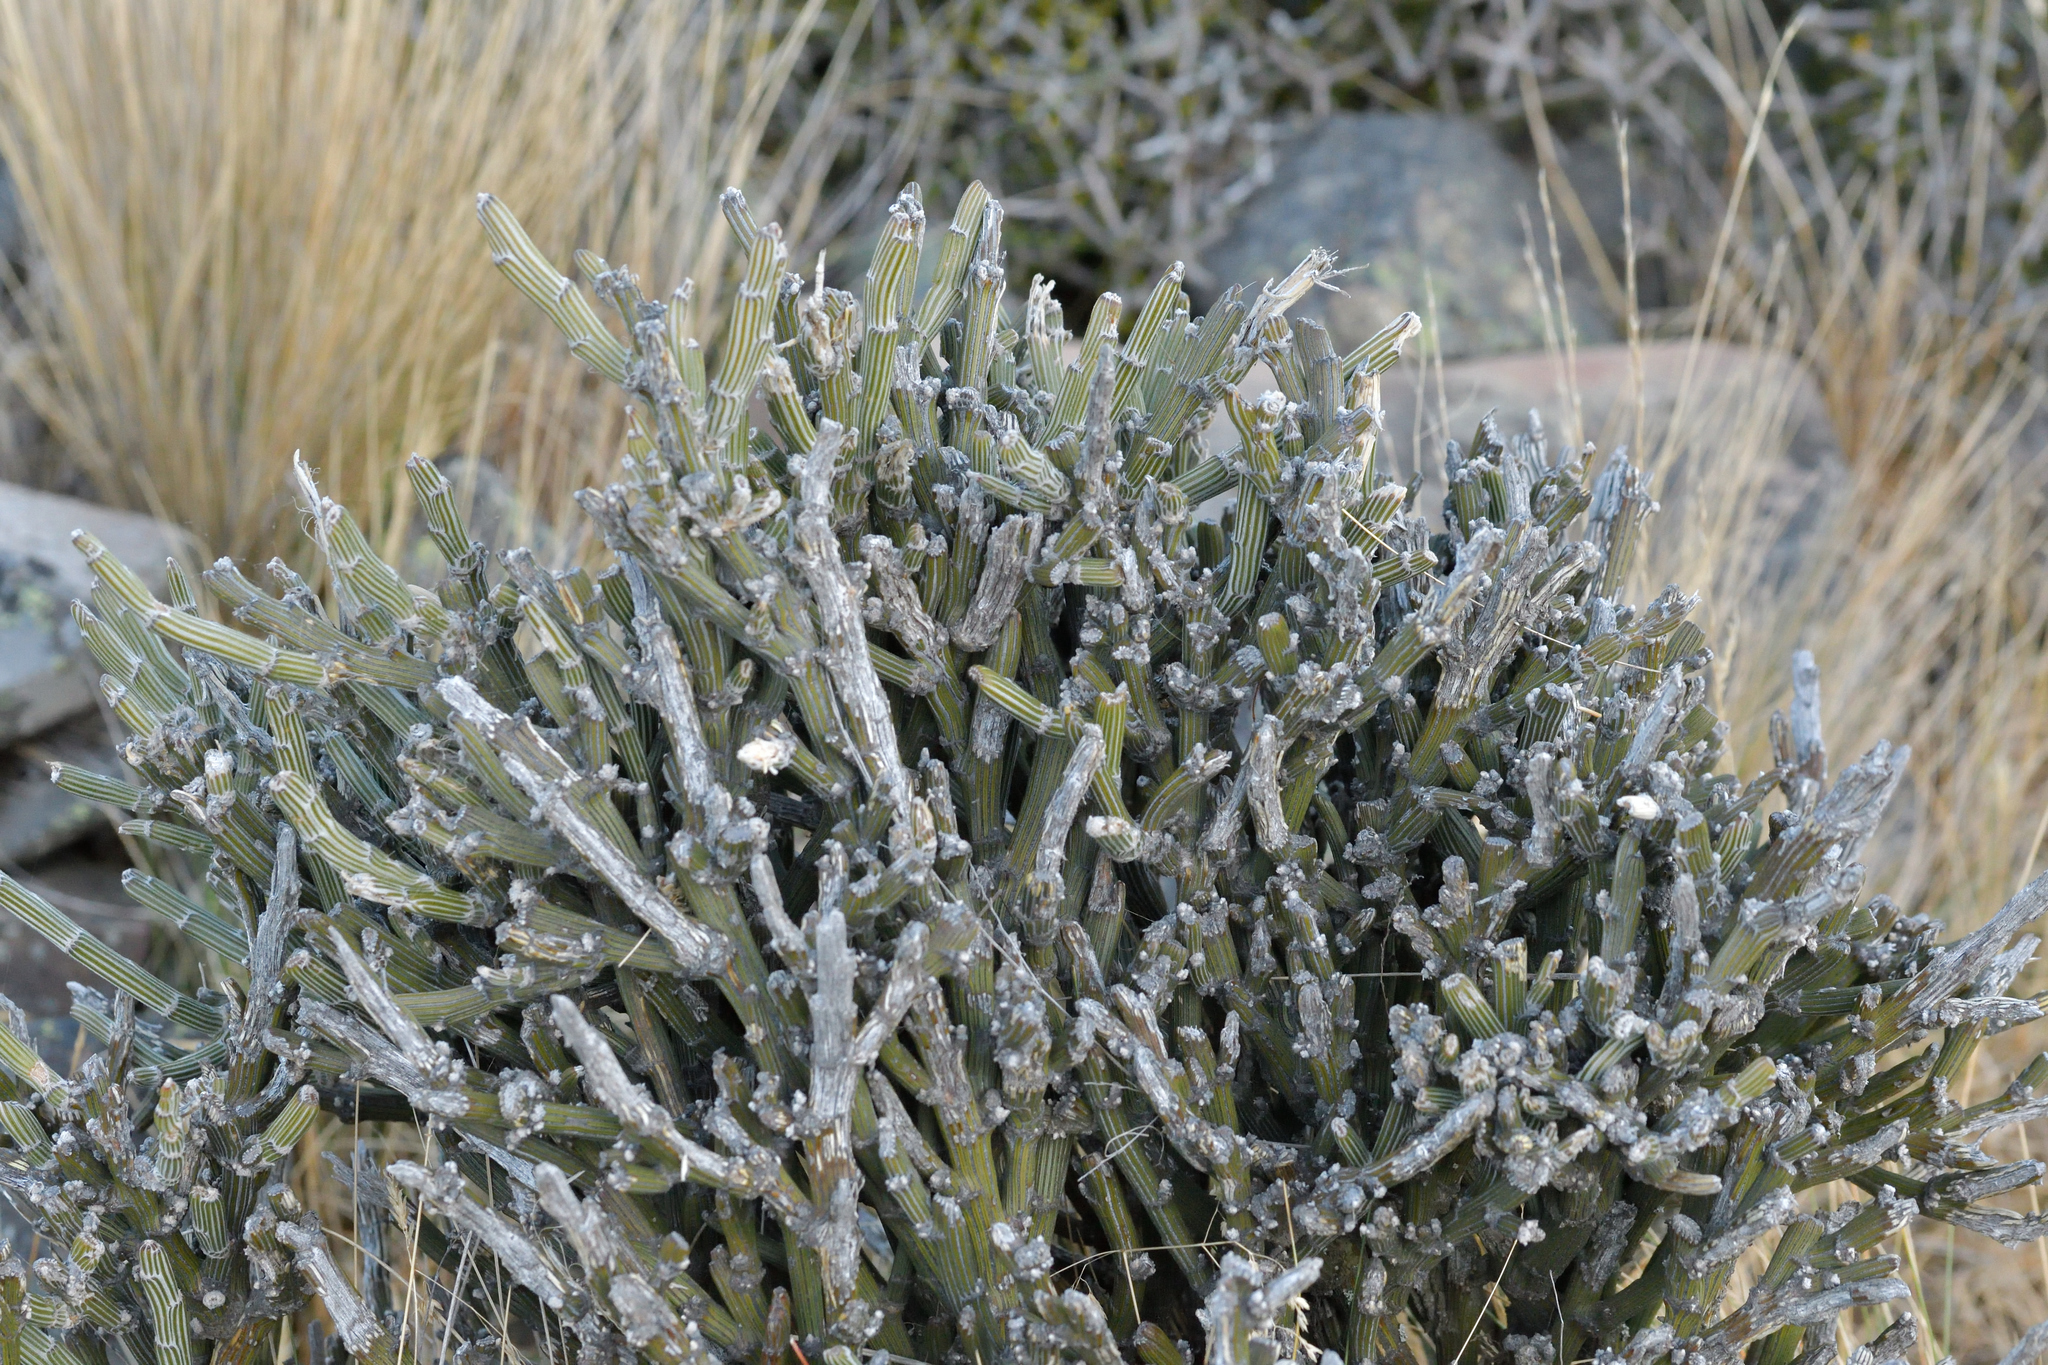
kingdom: Plantae
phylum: Tracheophyta
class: Magnoliopsida
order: Fabales
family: Fabaceae
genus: Carmichaelia
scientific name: Carmichaelia crassicaulis
